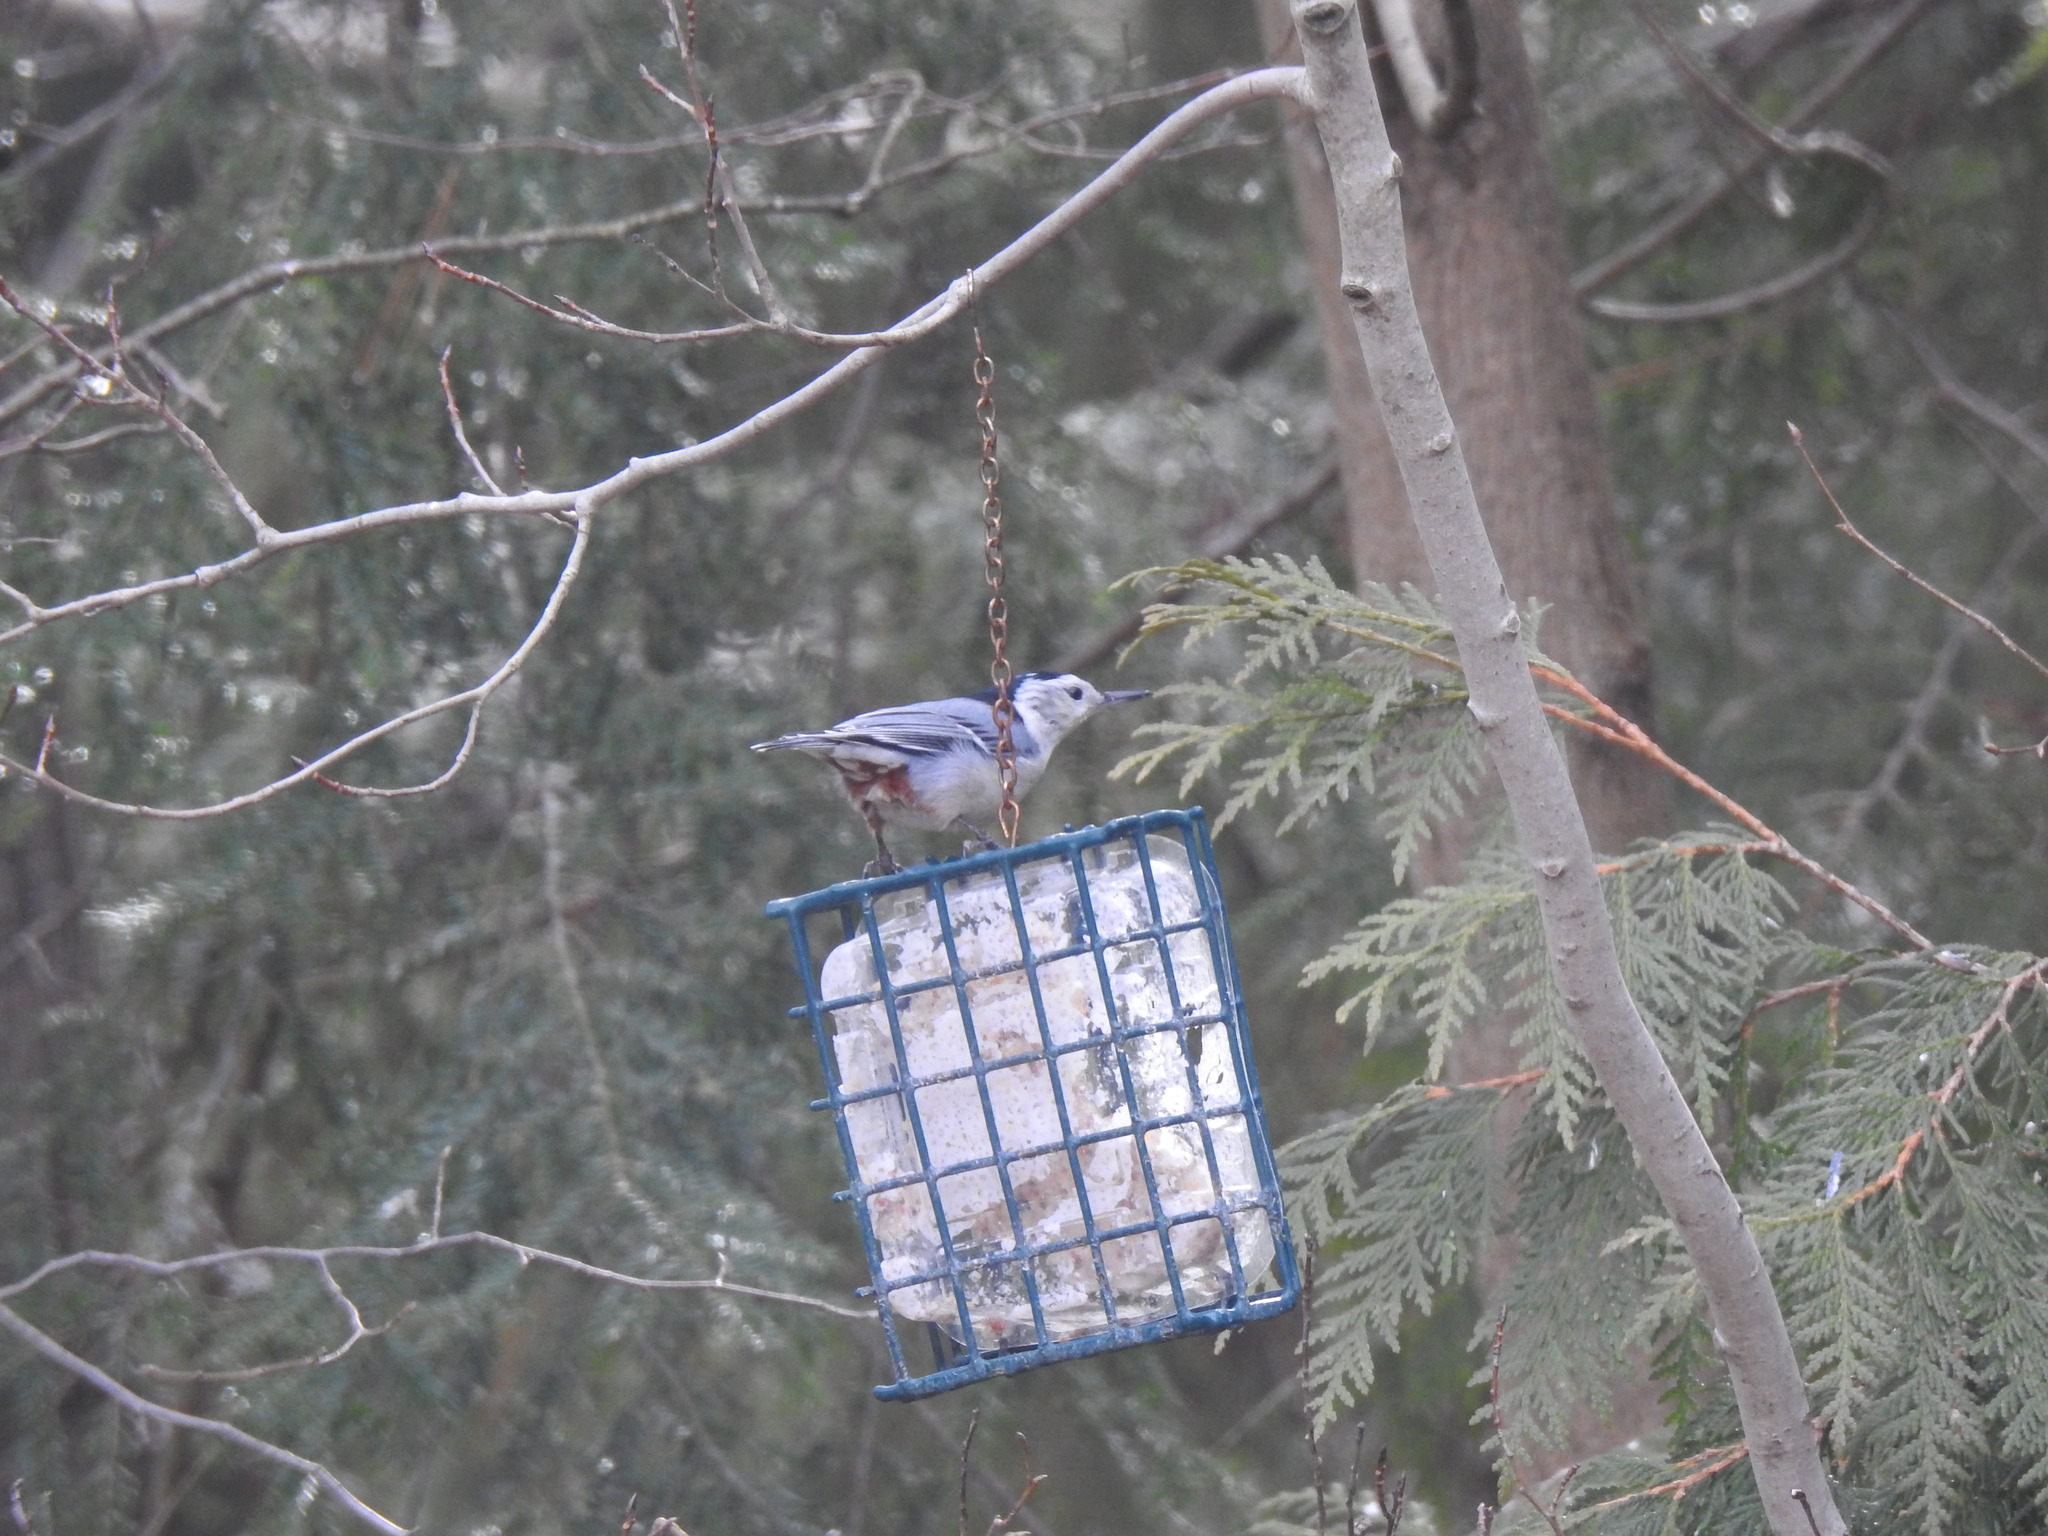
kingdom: Animalia
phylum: Chordata
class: Aves
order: Passeriformes
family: Sittidae
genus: Sitta
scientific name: Sitta carolinensis
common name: White-breasted nuthatch
